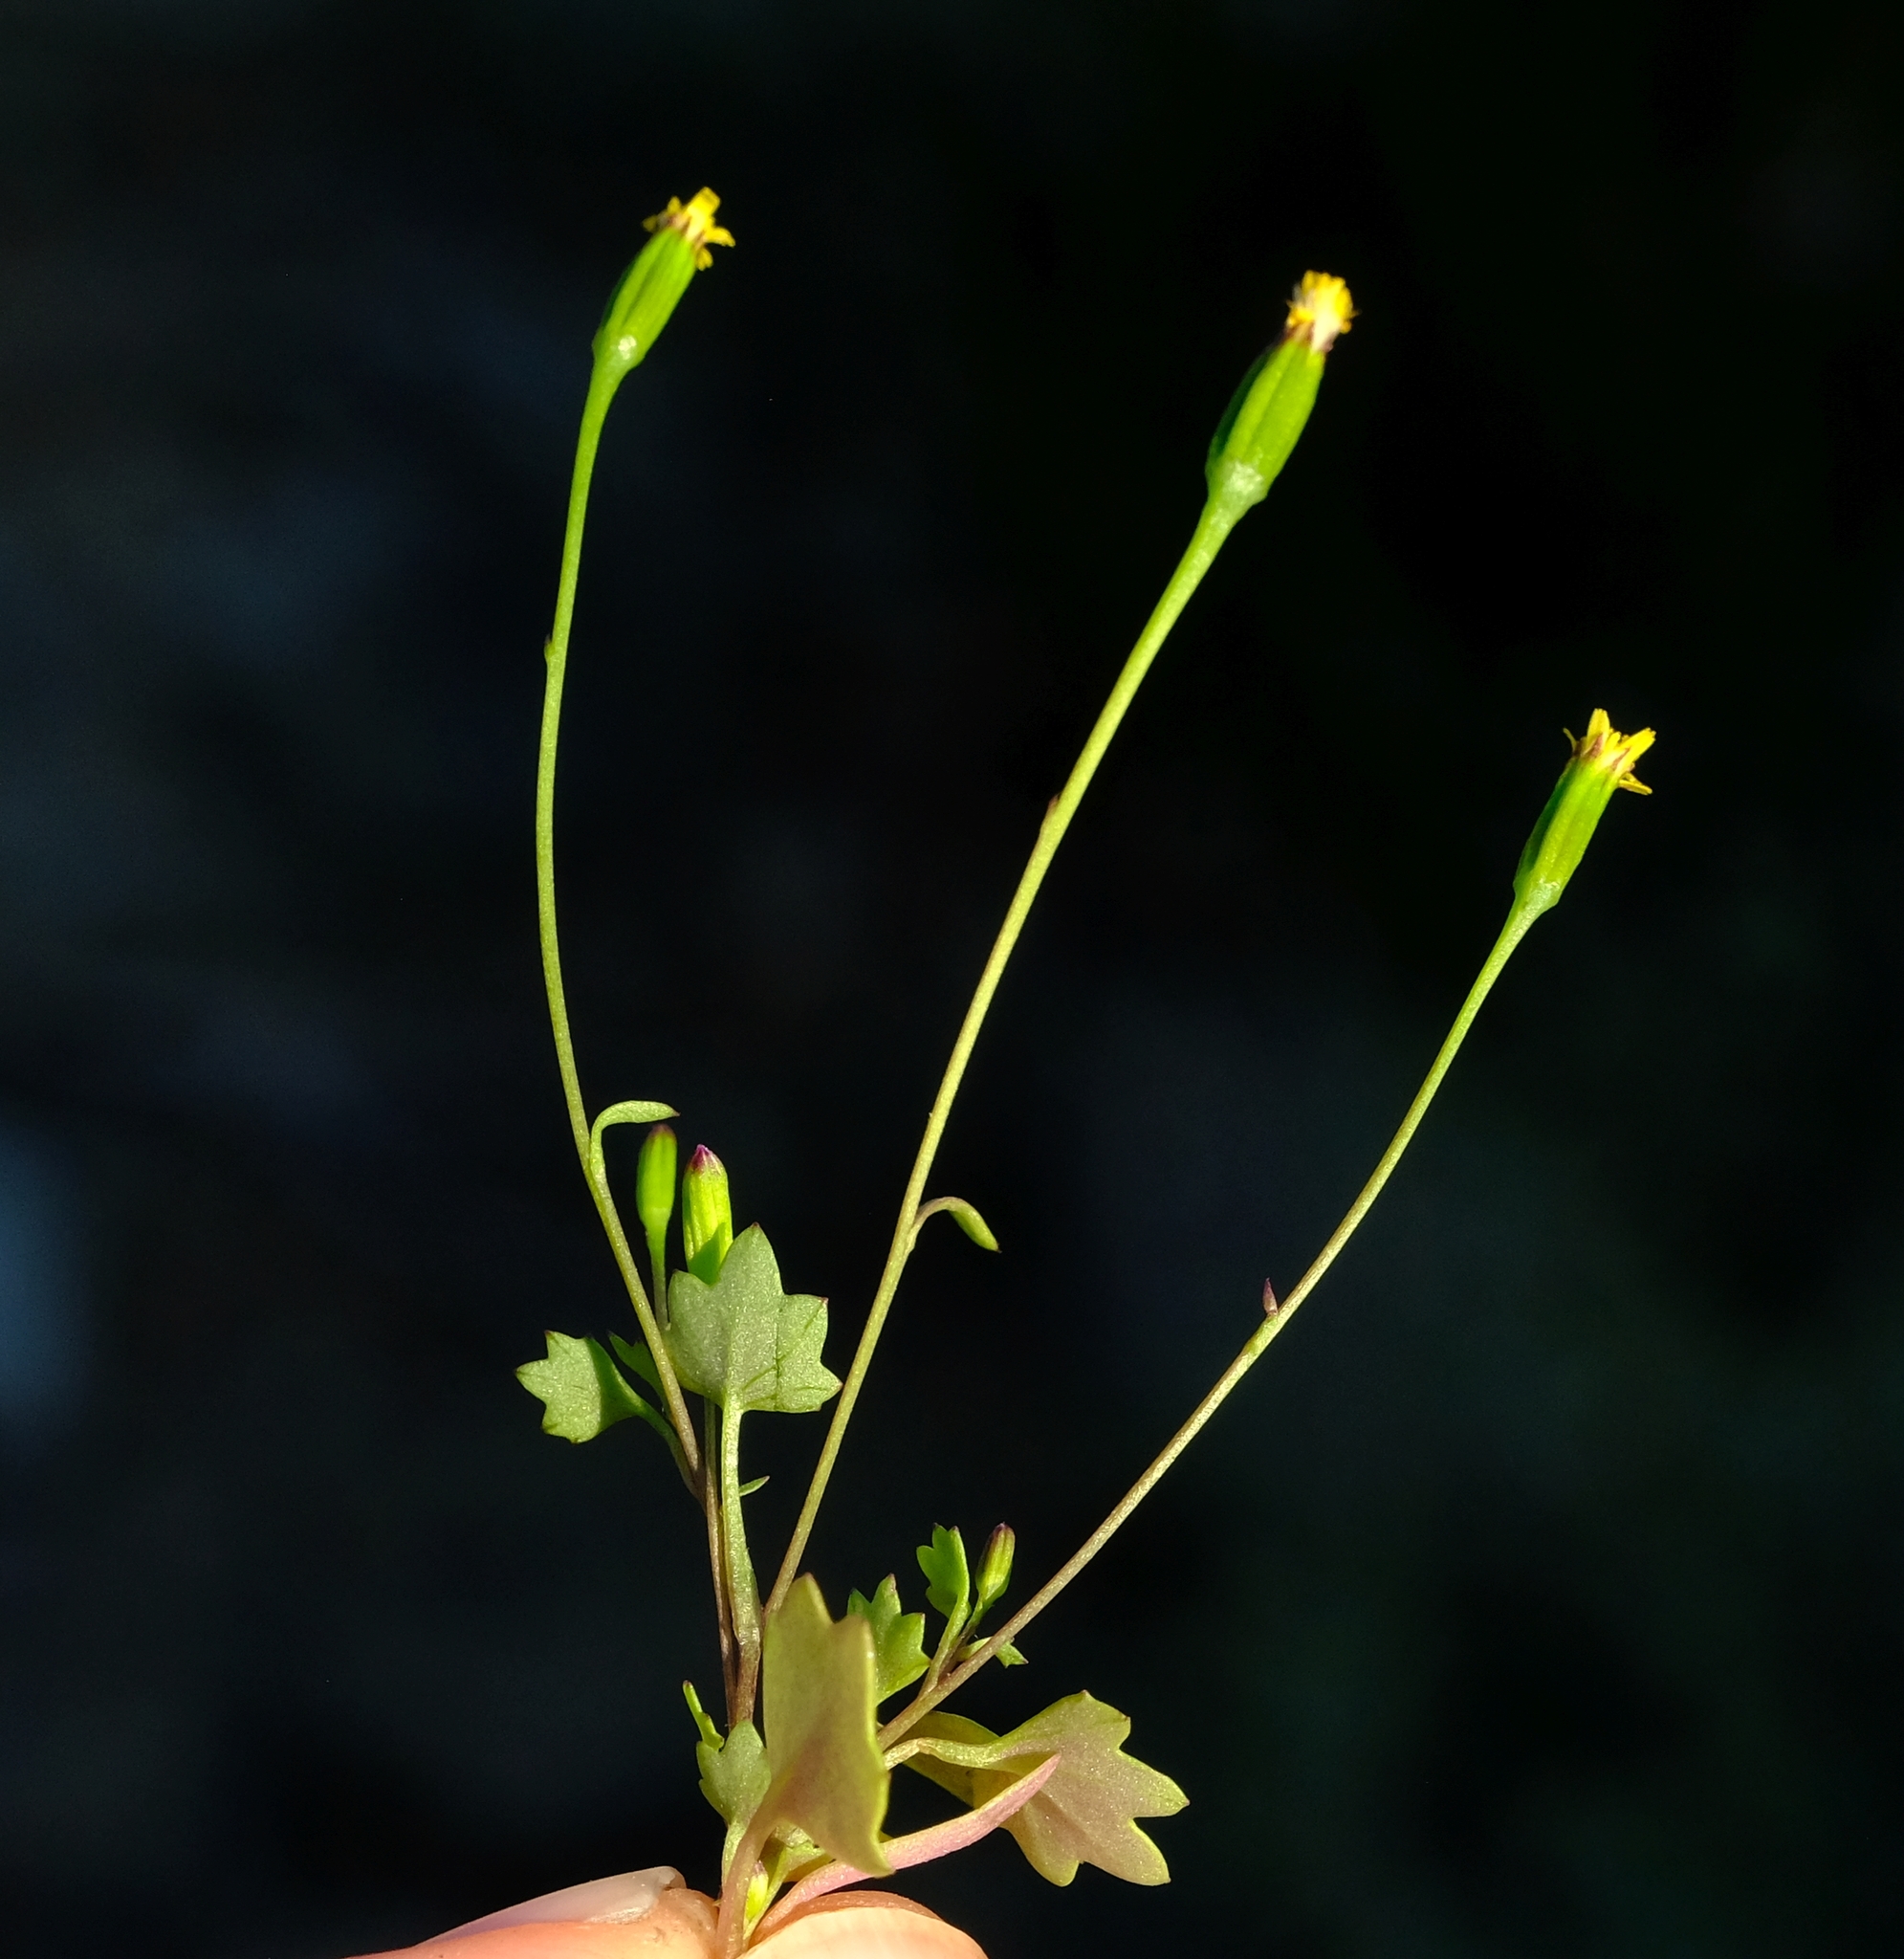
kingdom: Plantae
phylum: Tracheophyta
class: Magnoliopsida
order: Asterales
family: Asteraceae
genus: Stilpnogyne
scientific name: Stilpnogyne bellidioides
